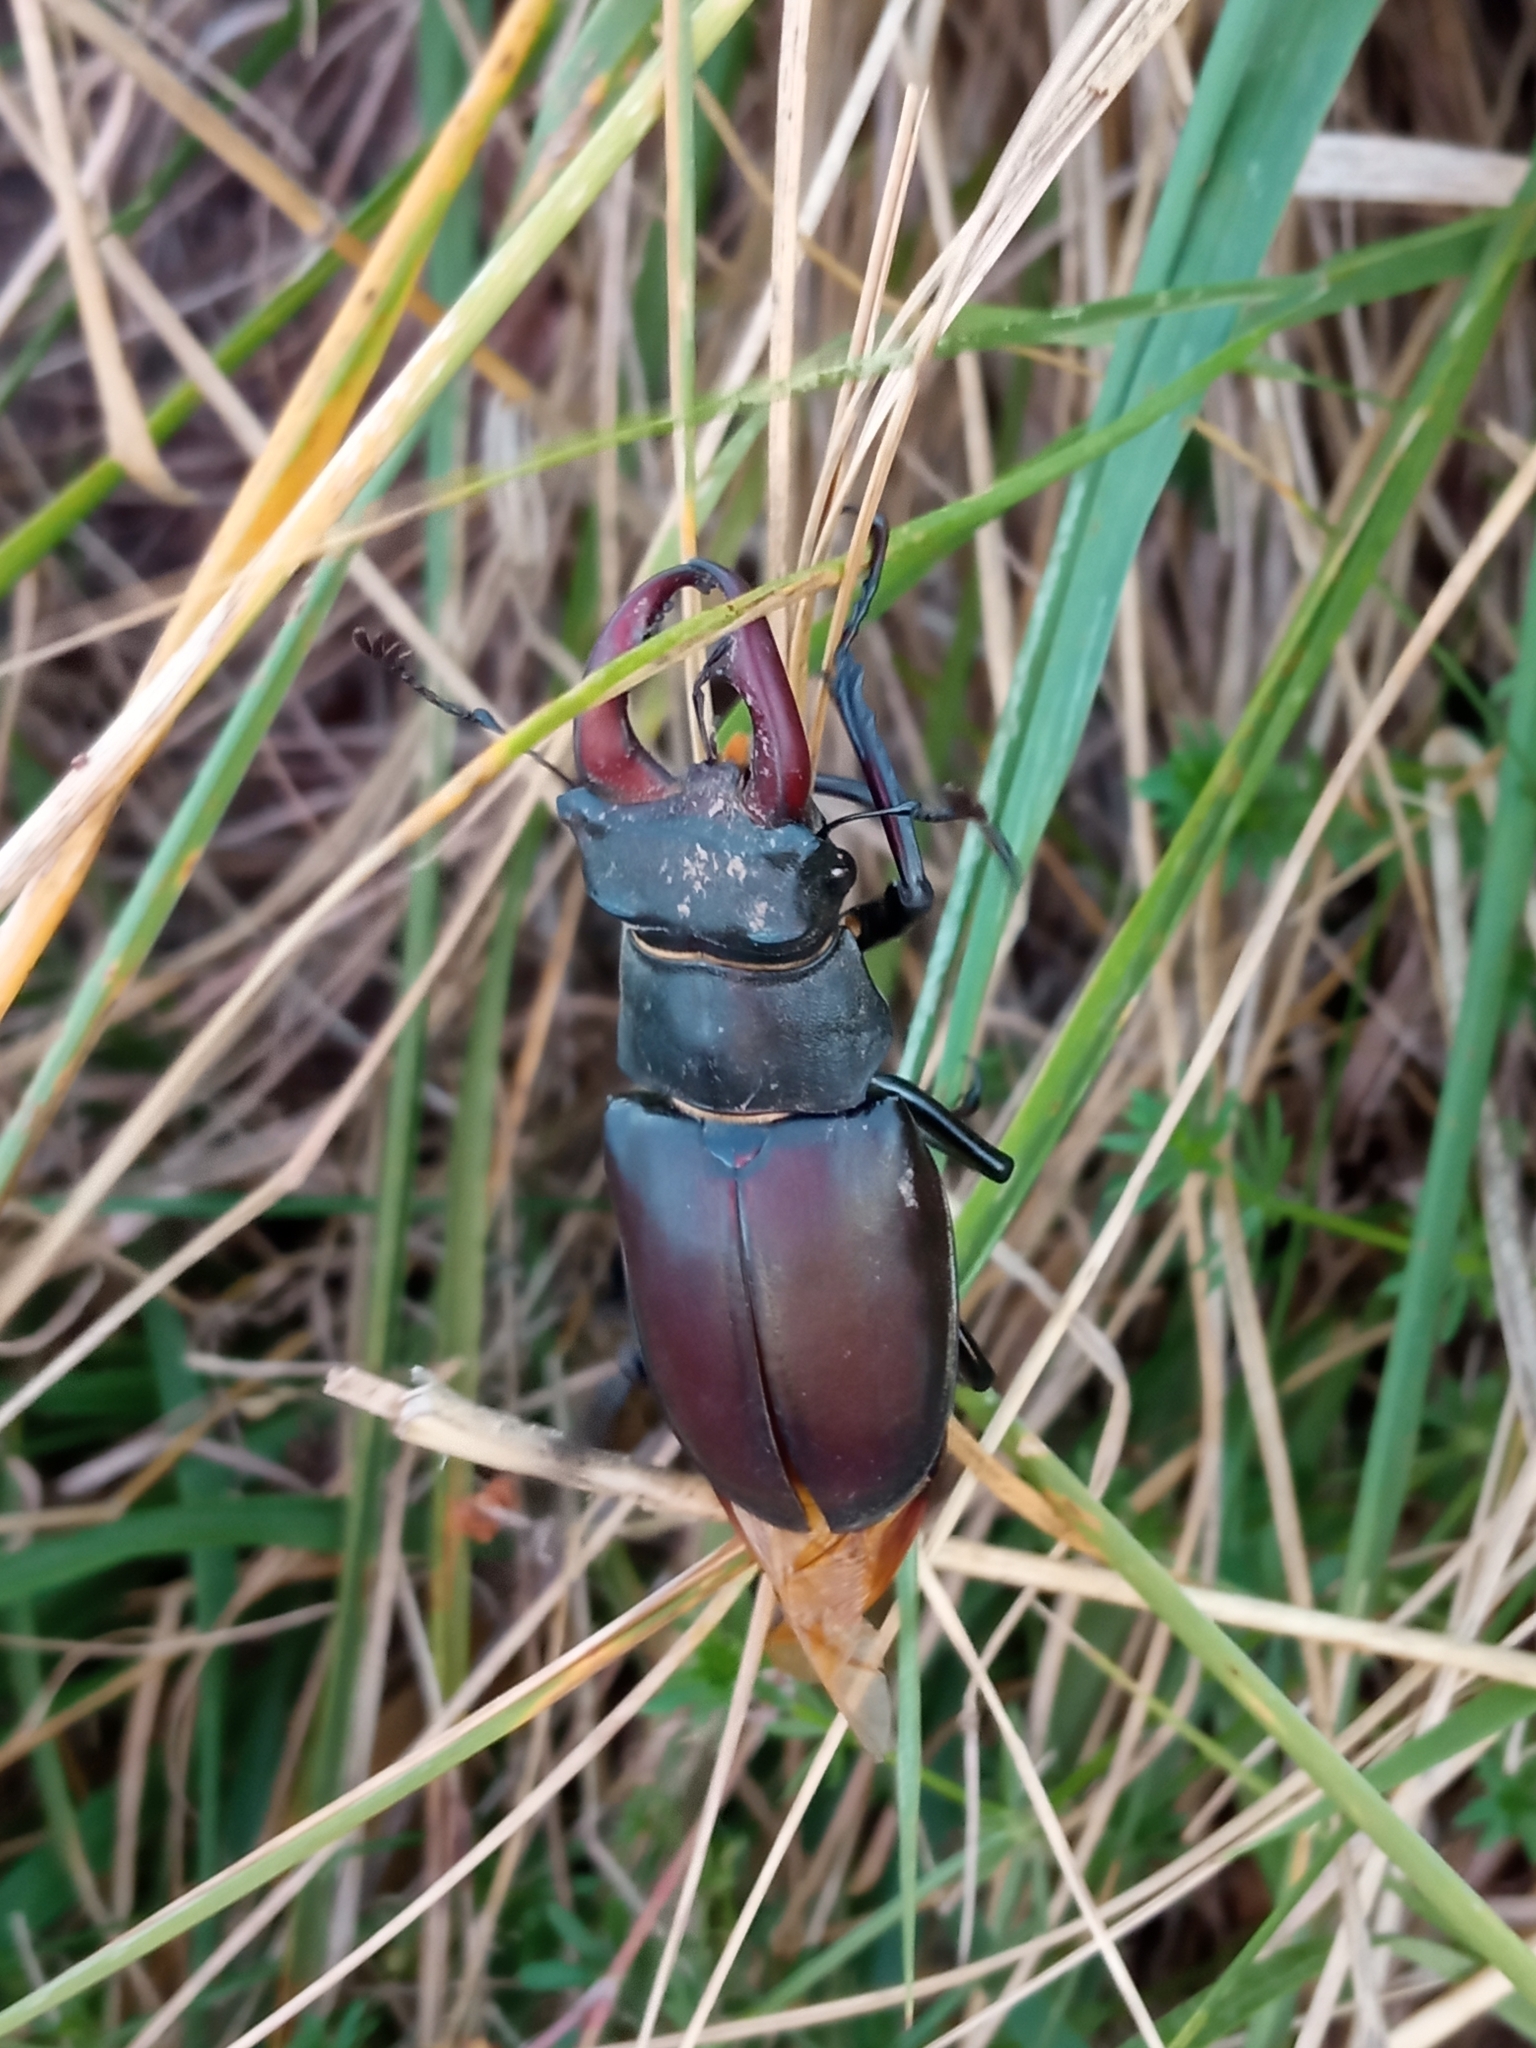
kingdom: Animalia
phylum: Arthropoda
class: Insecta
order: Coleoptera
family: Lucanidae
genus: Lucanus
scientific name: Lucanus cervus
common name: Stag beetle
